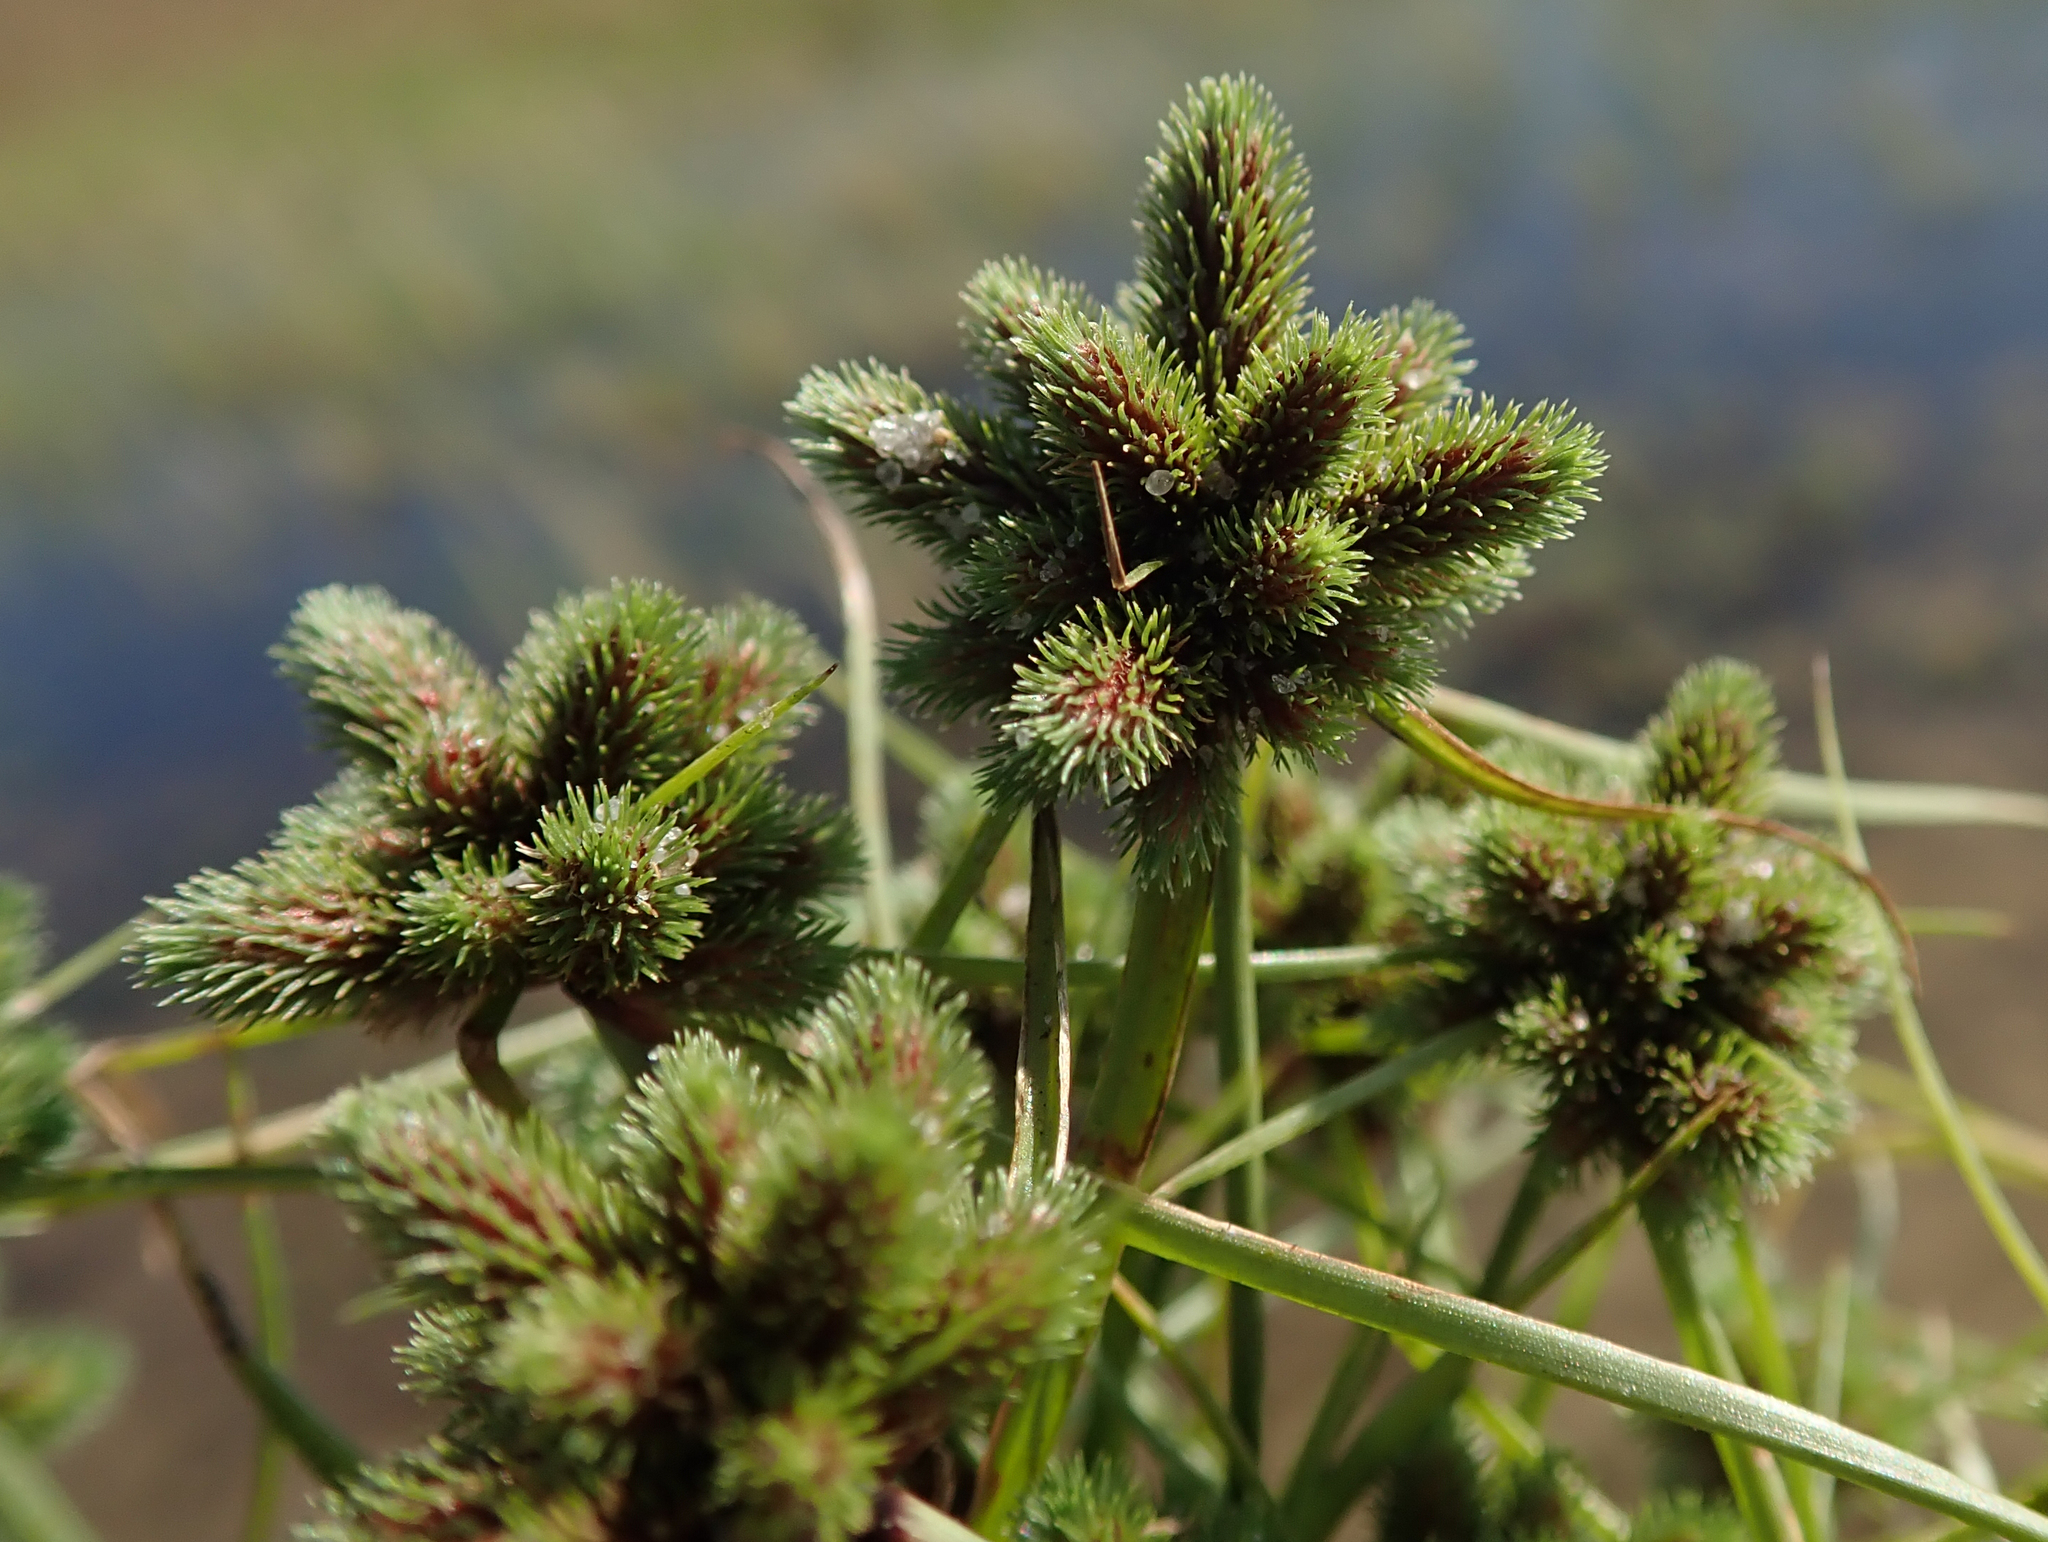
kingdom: Plantae
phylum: Tracheophyta
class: Liliopsida
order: Poales
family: Cyperaceae
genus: Cyperus
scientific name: Cyperus hystricoides
